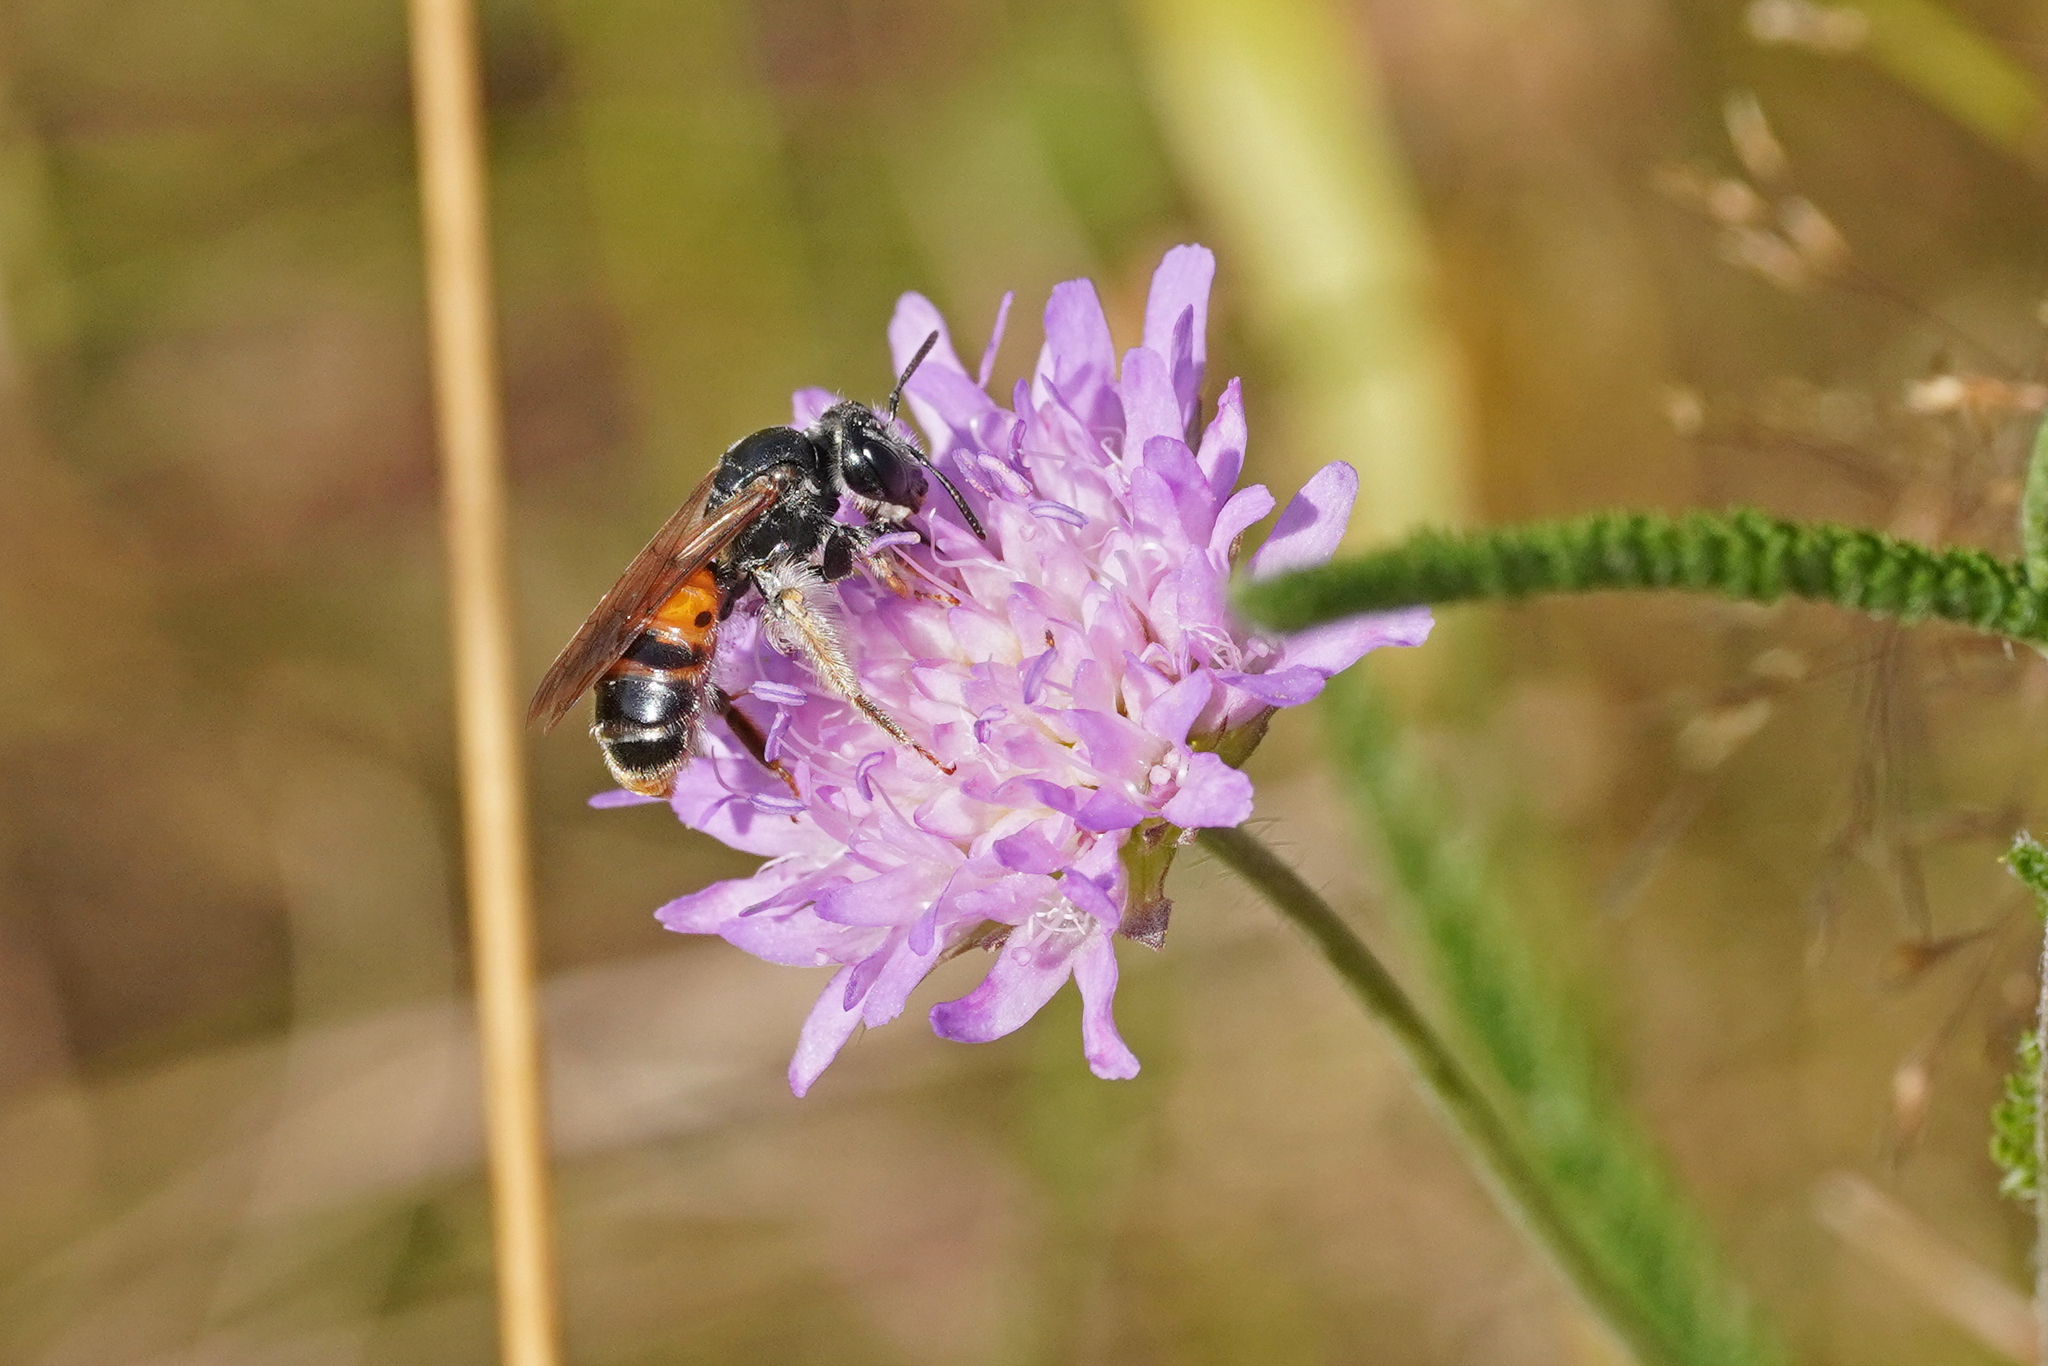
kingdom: Animalia
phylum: Arthropoda
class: Insecta
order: Hymenoptera
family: Andrenidae
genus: Andrena
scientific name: Andrena hattorfiana
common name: Large scabious mining bee
